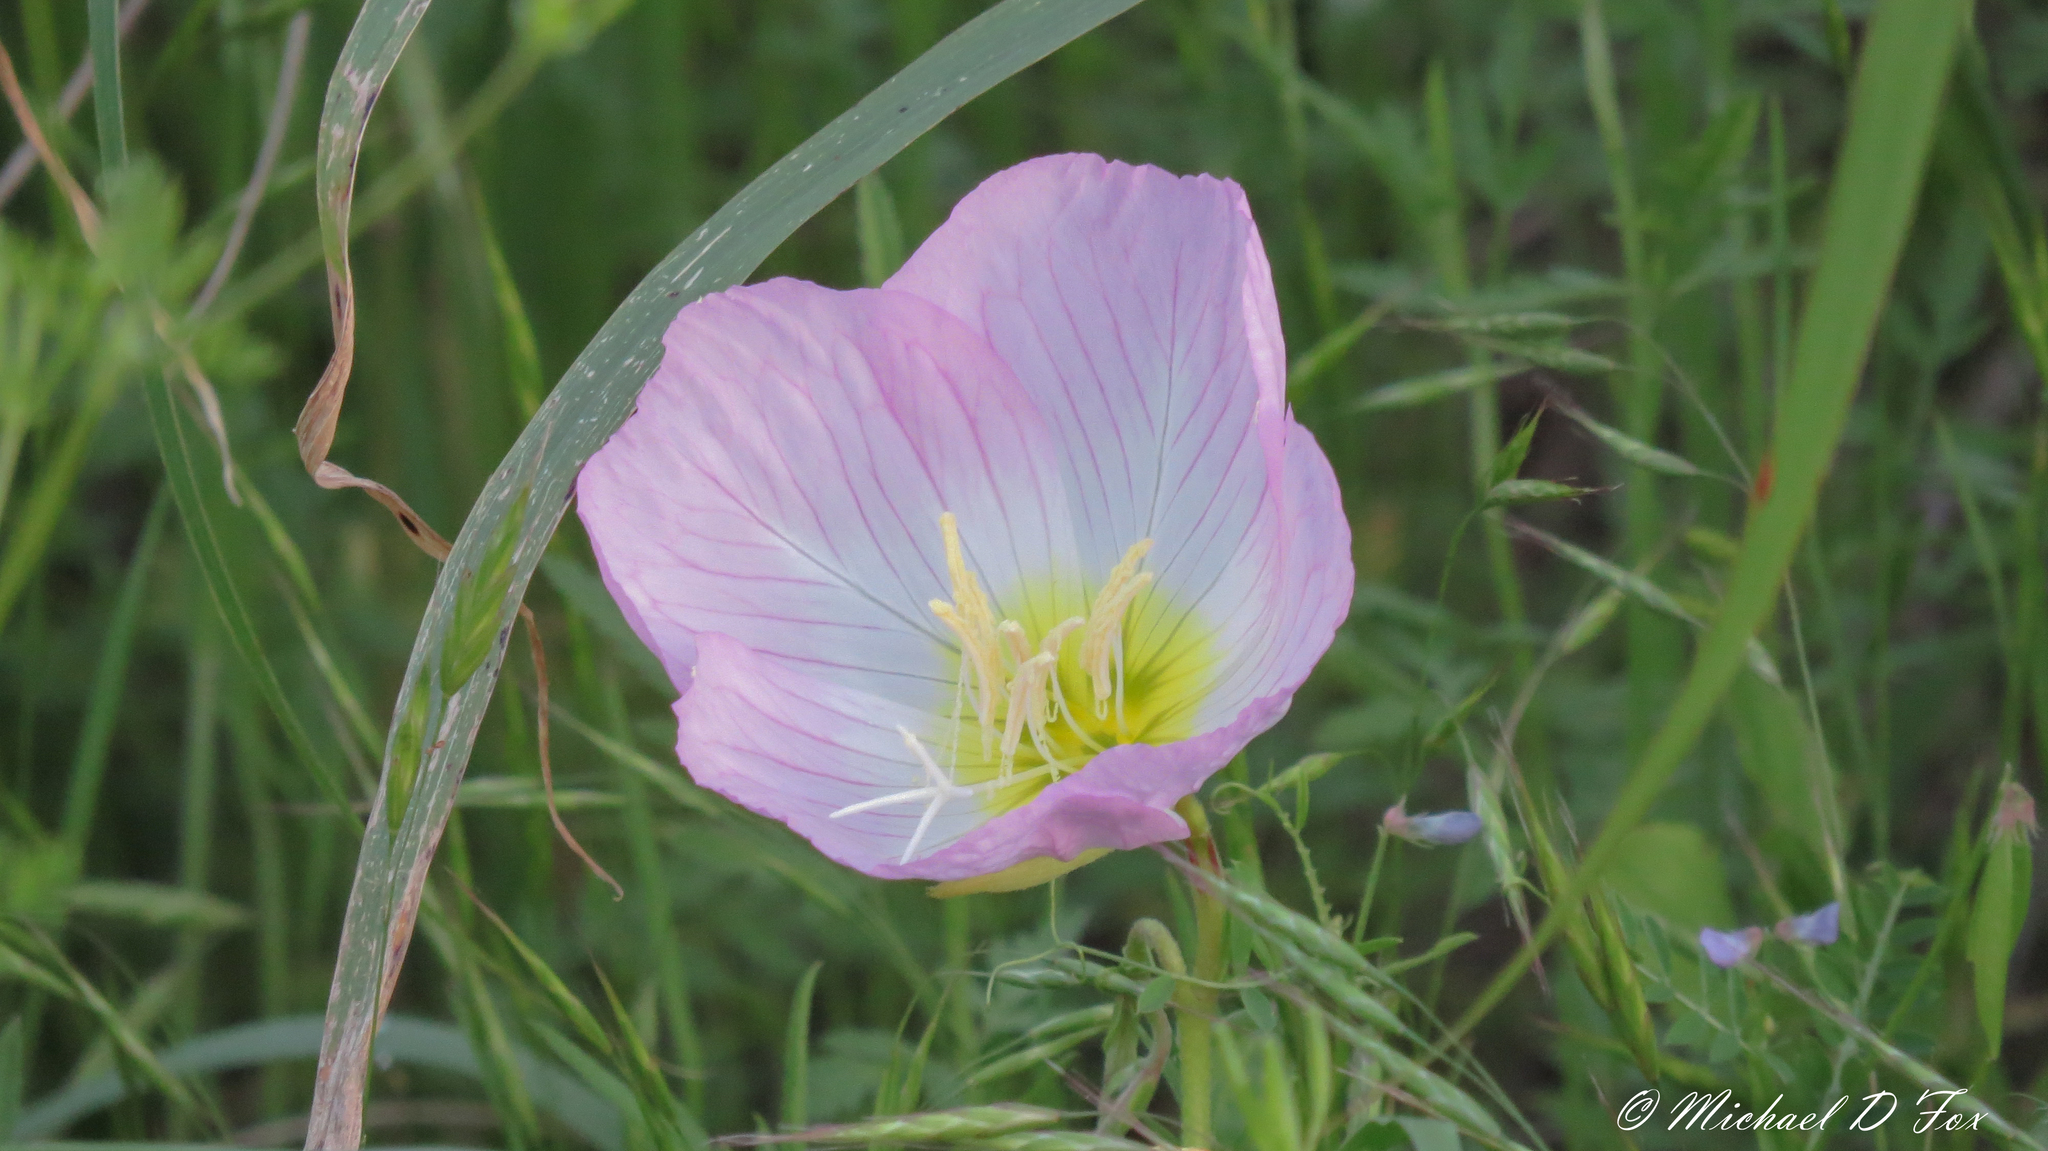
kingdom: Plantae
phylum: Tracheophyta
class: Magnoliopsida
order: Myrtales
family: Onagraceae
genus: Oenothera
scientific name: Oenothera speciosa
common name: White evening-primrose
